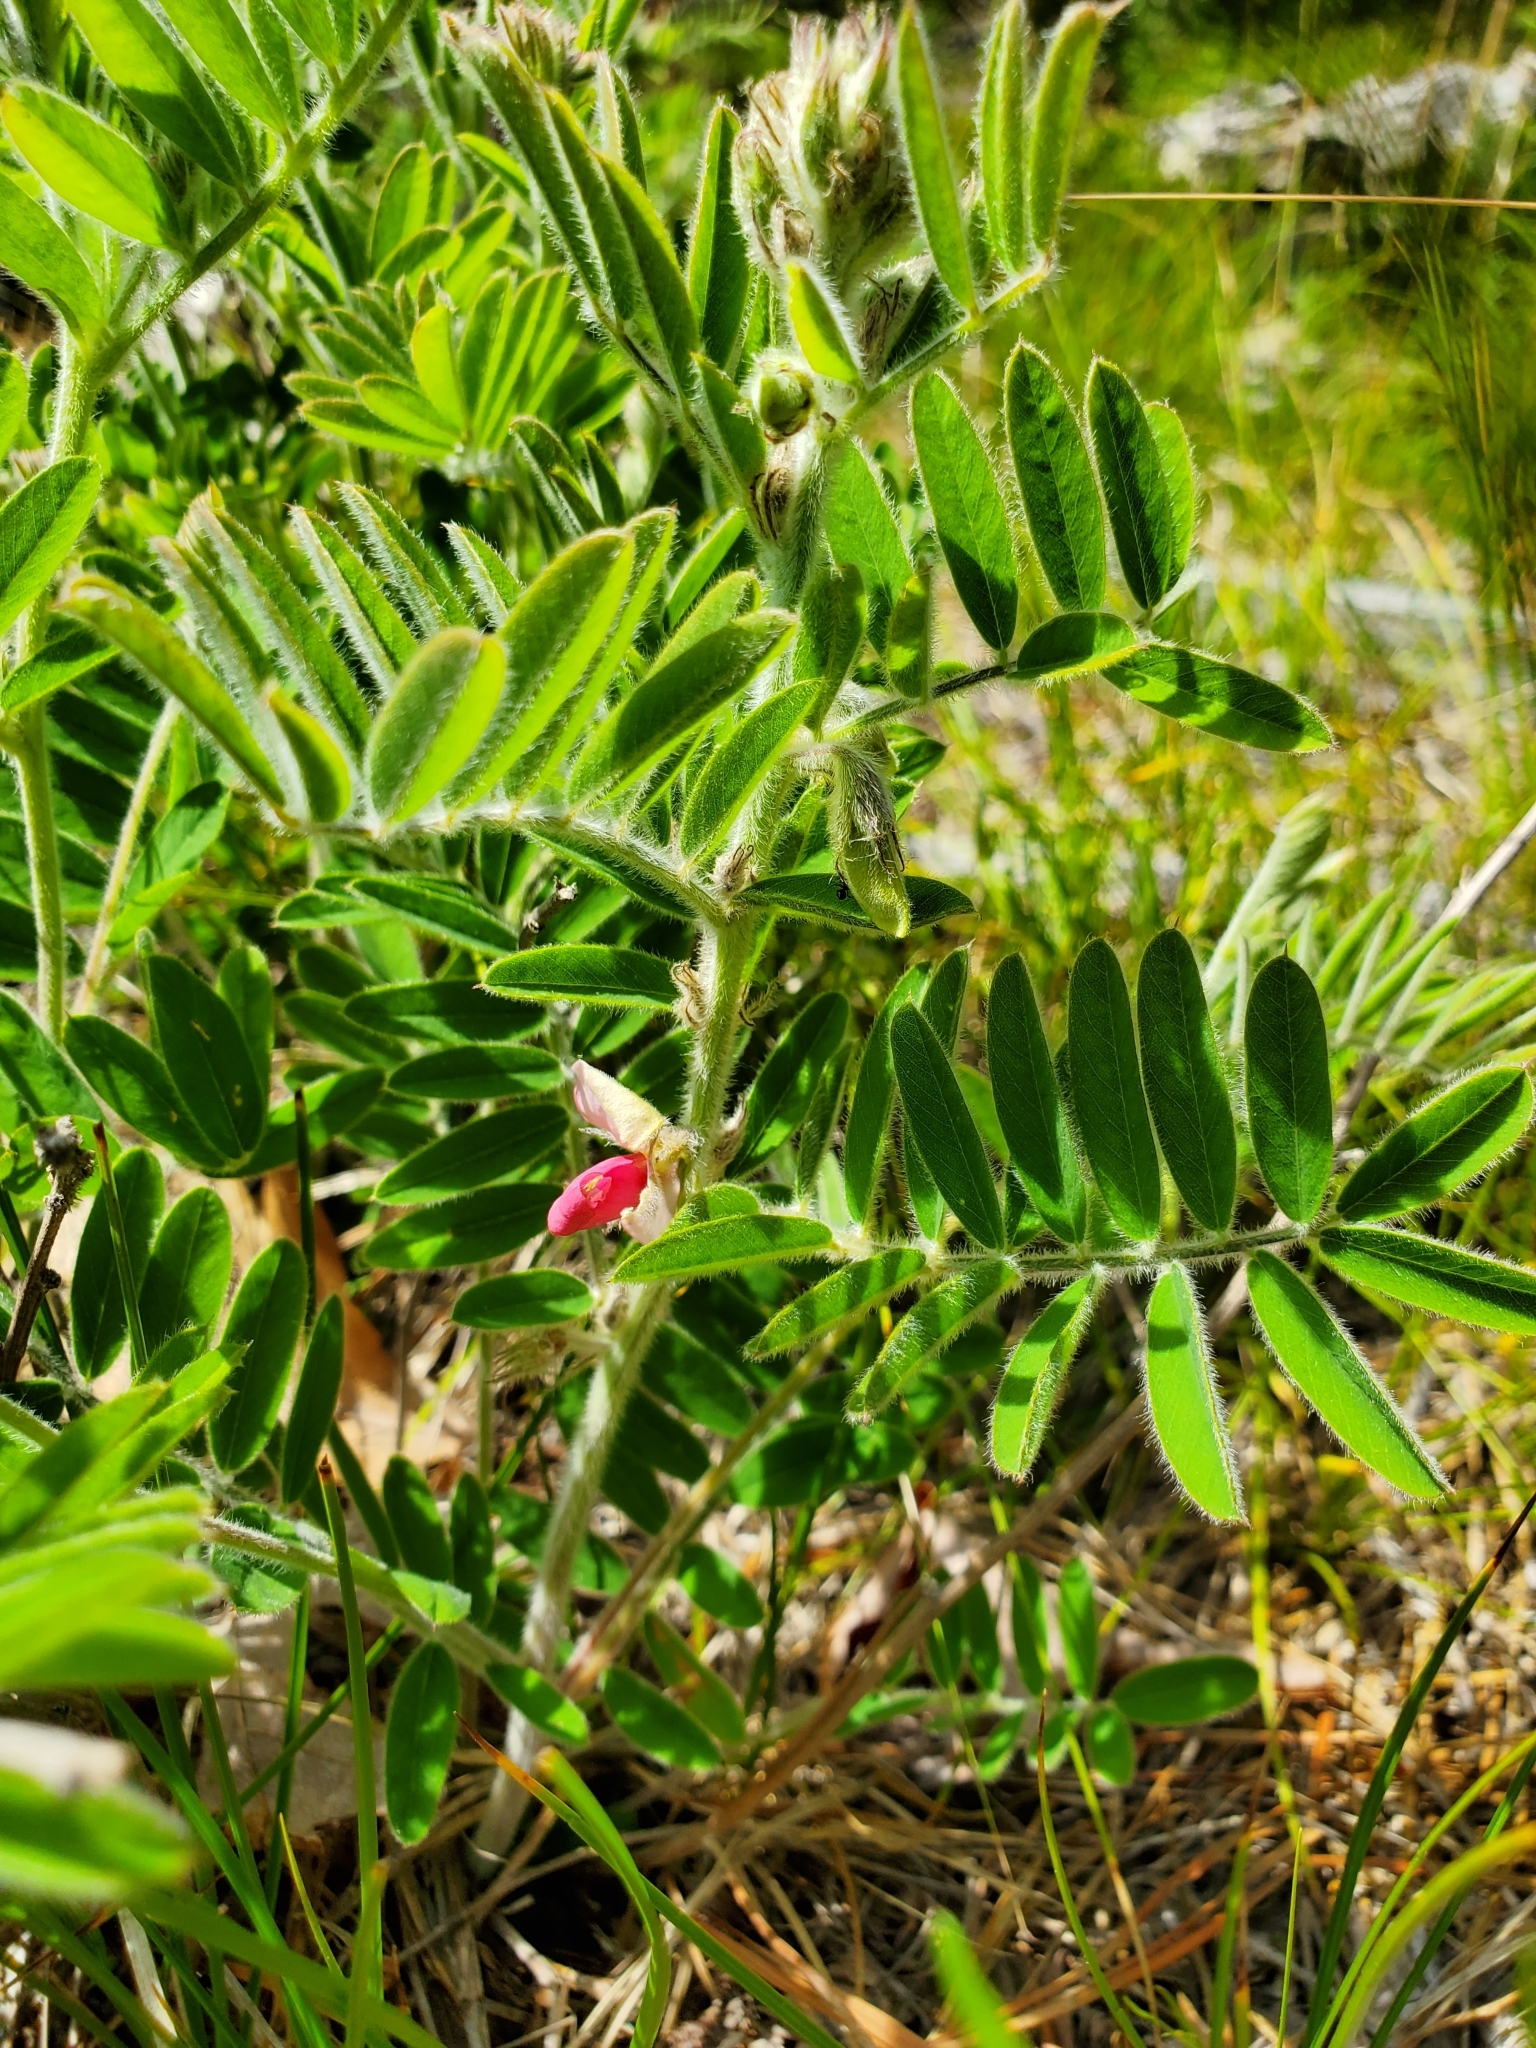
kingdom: Plantae
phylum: Tracheophyta
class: Magnoliopsida
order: Fabales
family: Fabaceae
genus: Tephrosia
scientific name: Tephrosia virginiana
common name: Rabbit-pea
